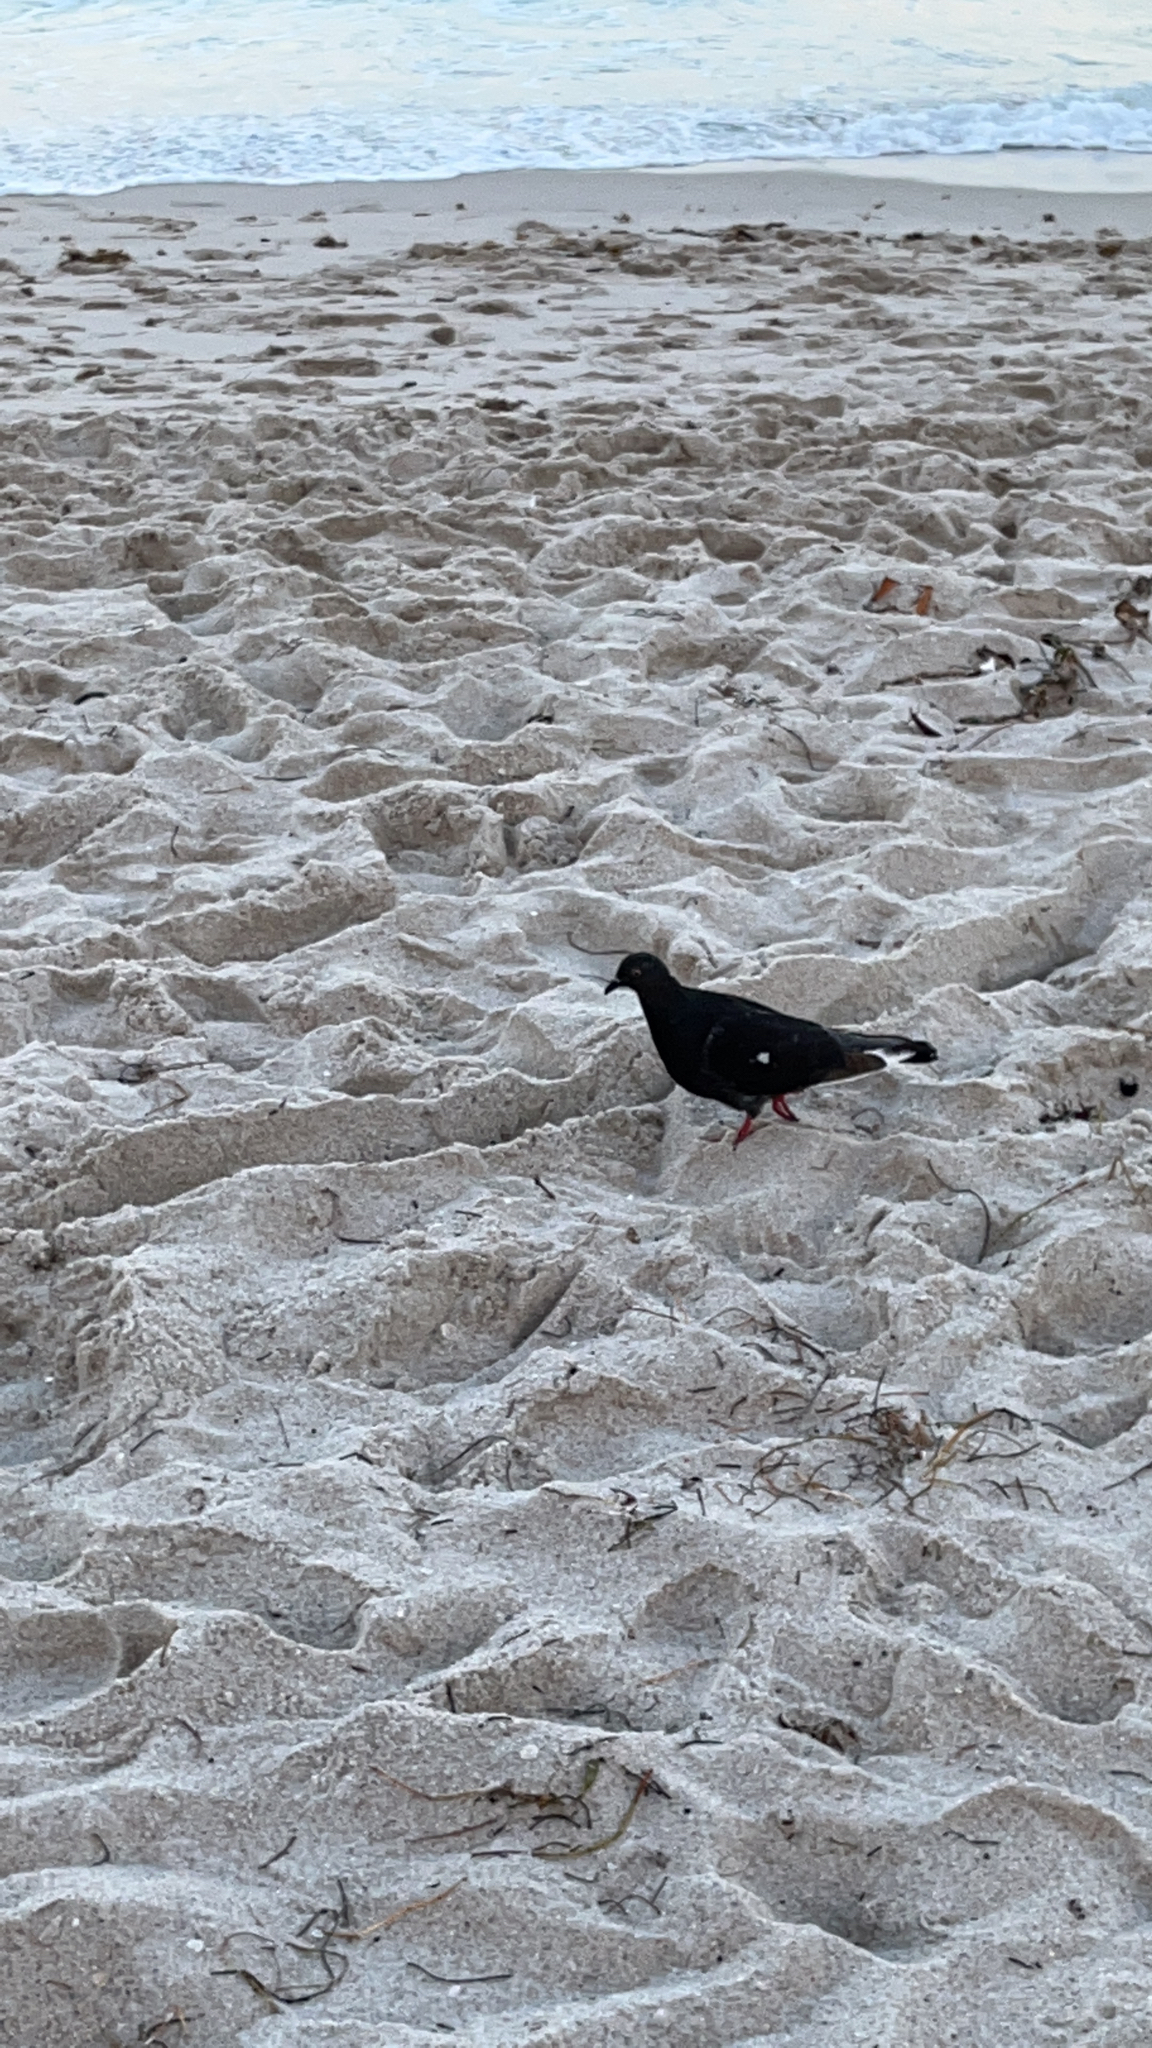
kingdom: Animalia
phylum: Chordata
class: Aves
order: Columbiformes
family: Columbidae
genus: Columba
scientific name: Columba livia
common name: Rock pigeon
